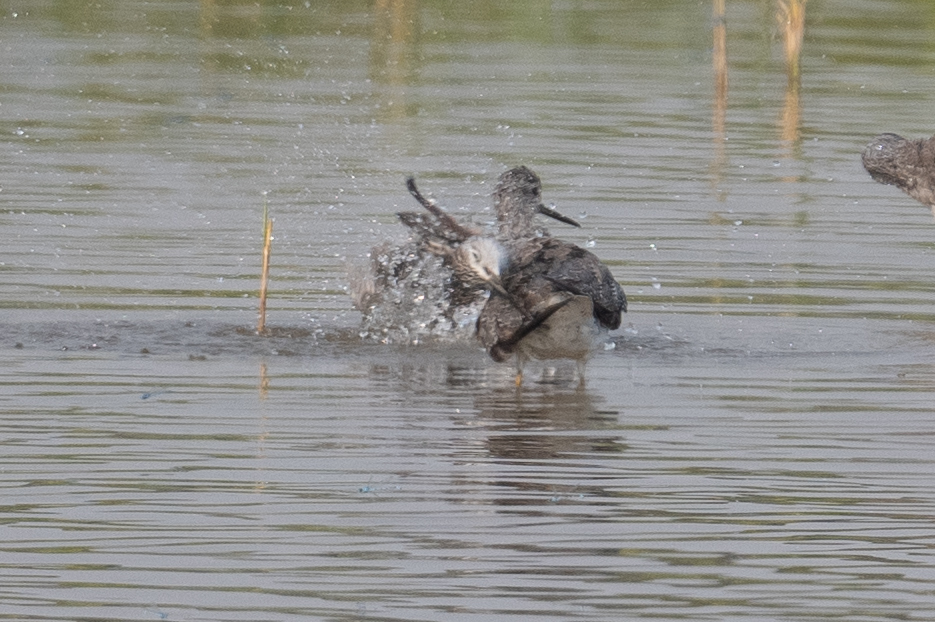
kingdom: Animalia
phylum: Chordata
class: Aves
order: Charadriiformes
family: Scolopacidae
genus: Tringa
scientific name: Tringa melanoleuca
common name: Greater yellowlegs
